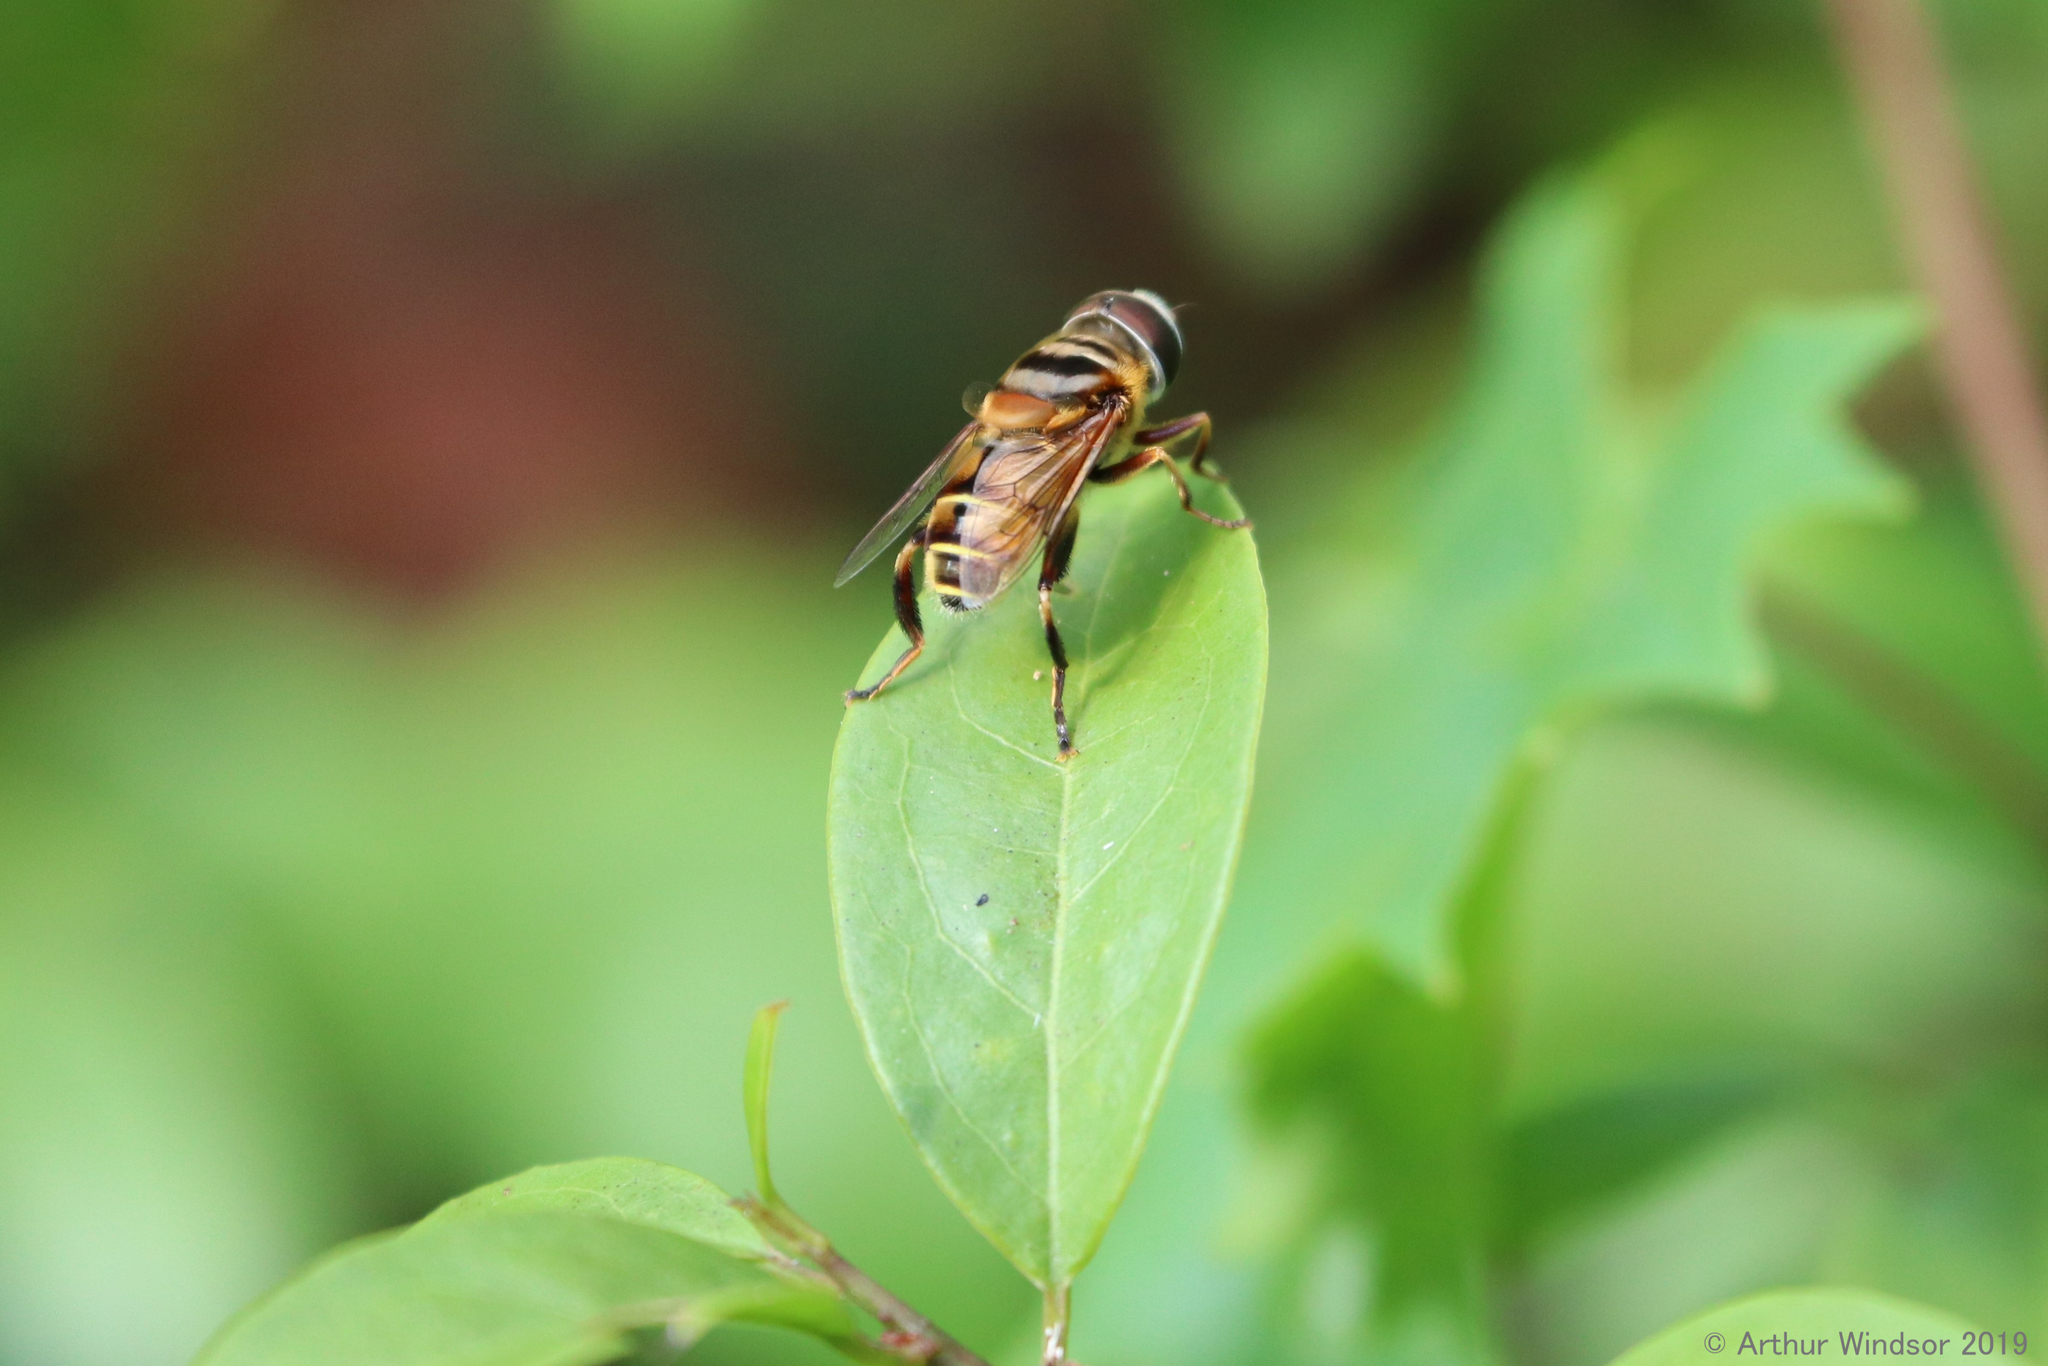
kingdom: Animalia
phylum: Arthropoda
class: Insecta
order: Diptera
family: Syrphidae
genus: Palpada
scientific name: Palpada vinetorum
